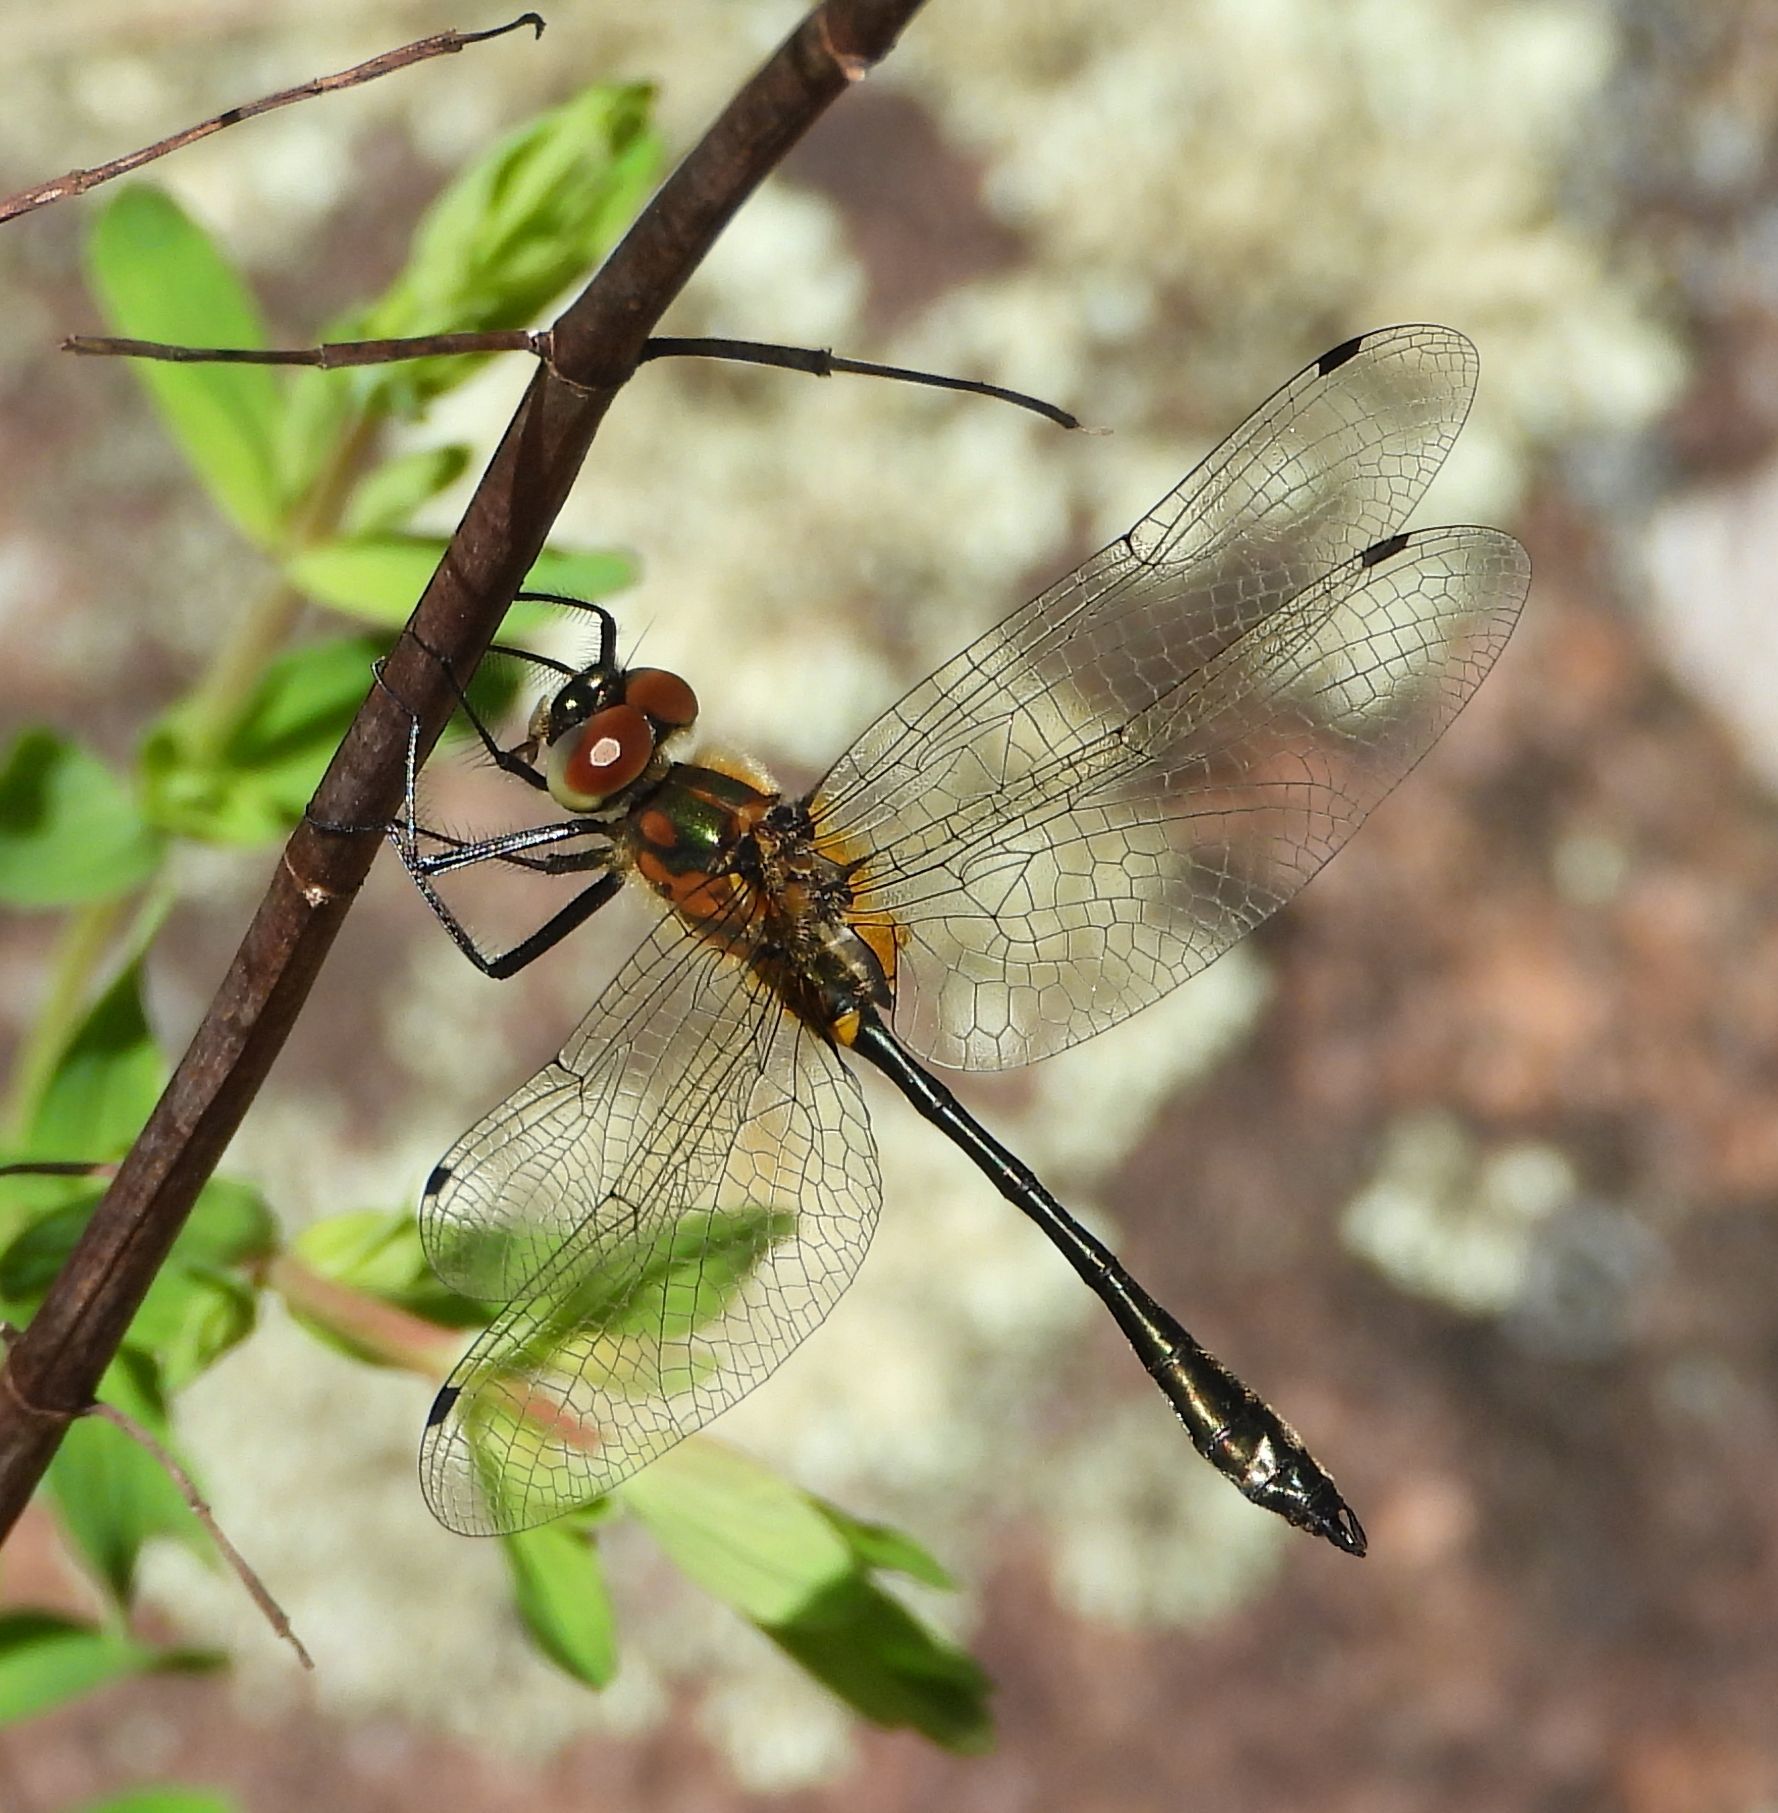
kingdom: Animalia
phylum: Arthropoda
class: Insecta
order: Odonata
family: Corduliidae
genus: Dorocordulia
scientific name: Dorocordulia libera
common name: Racket-tailed emerald
